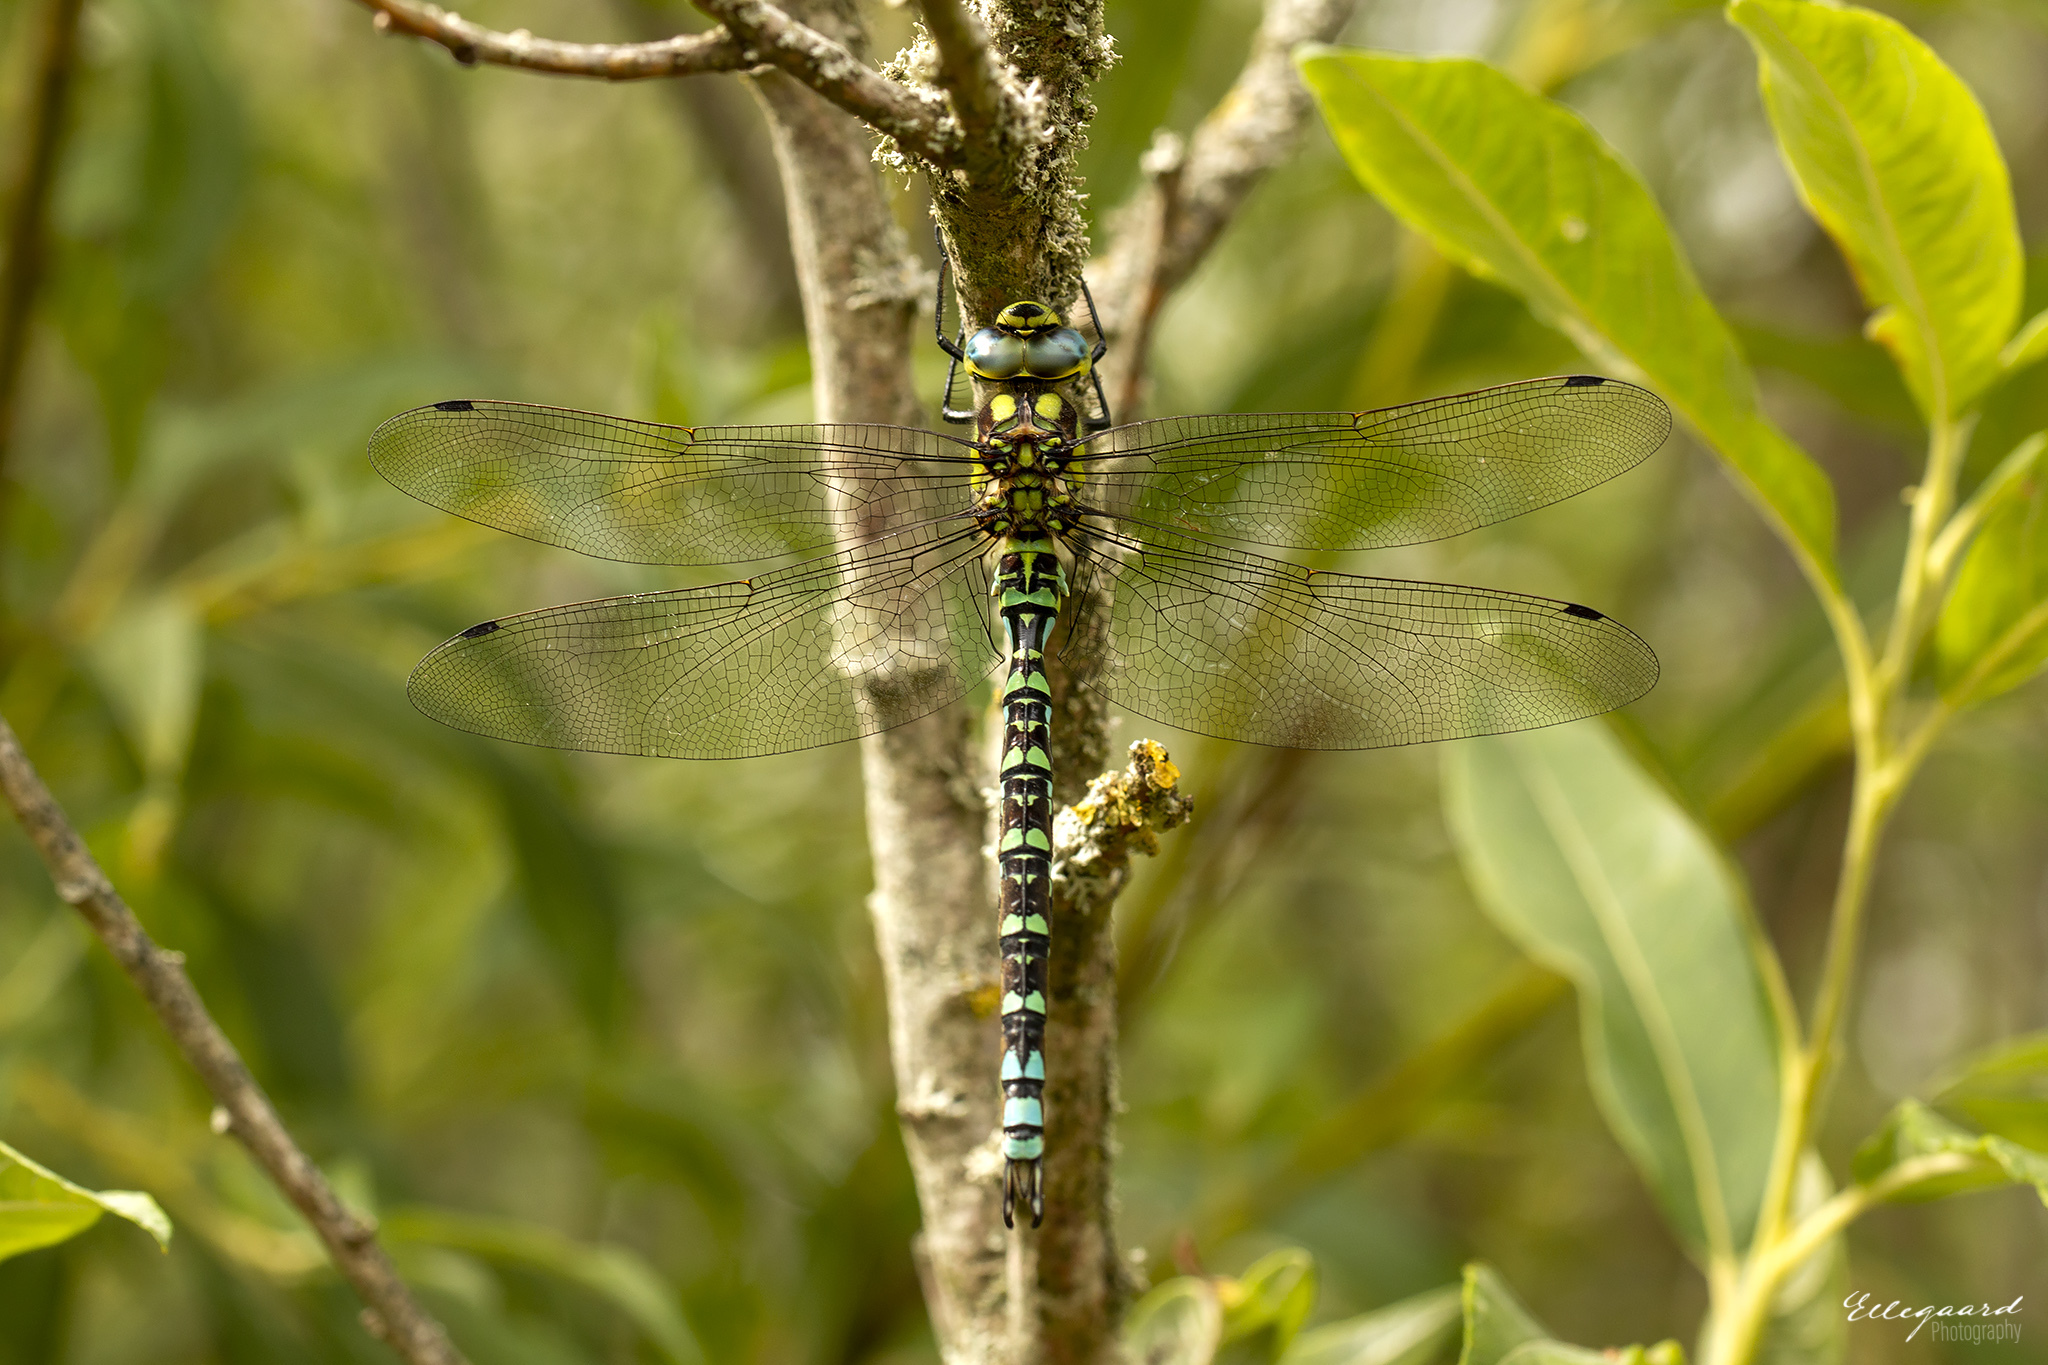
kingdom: Animalia
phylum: Arthropoda
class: Insecta
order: Odonata
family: Aeshnidae
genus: Aeshna
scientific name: Aeshna cyanea
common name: Southern hawker
